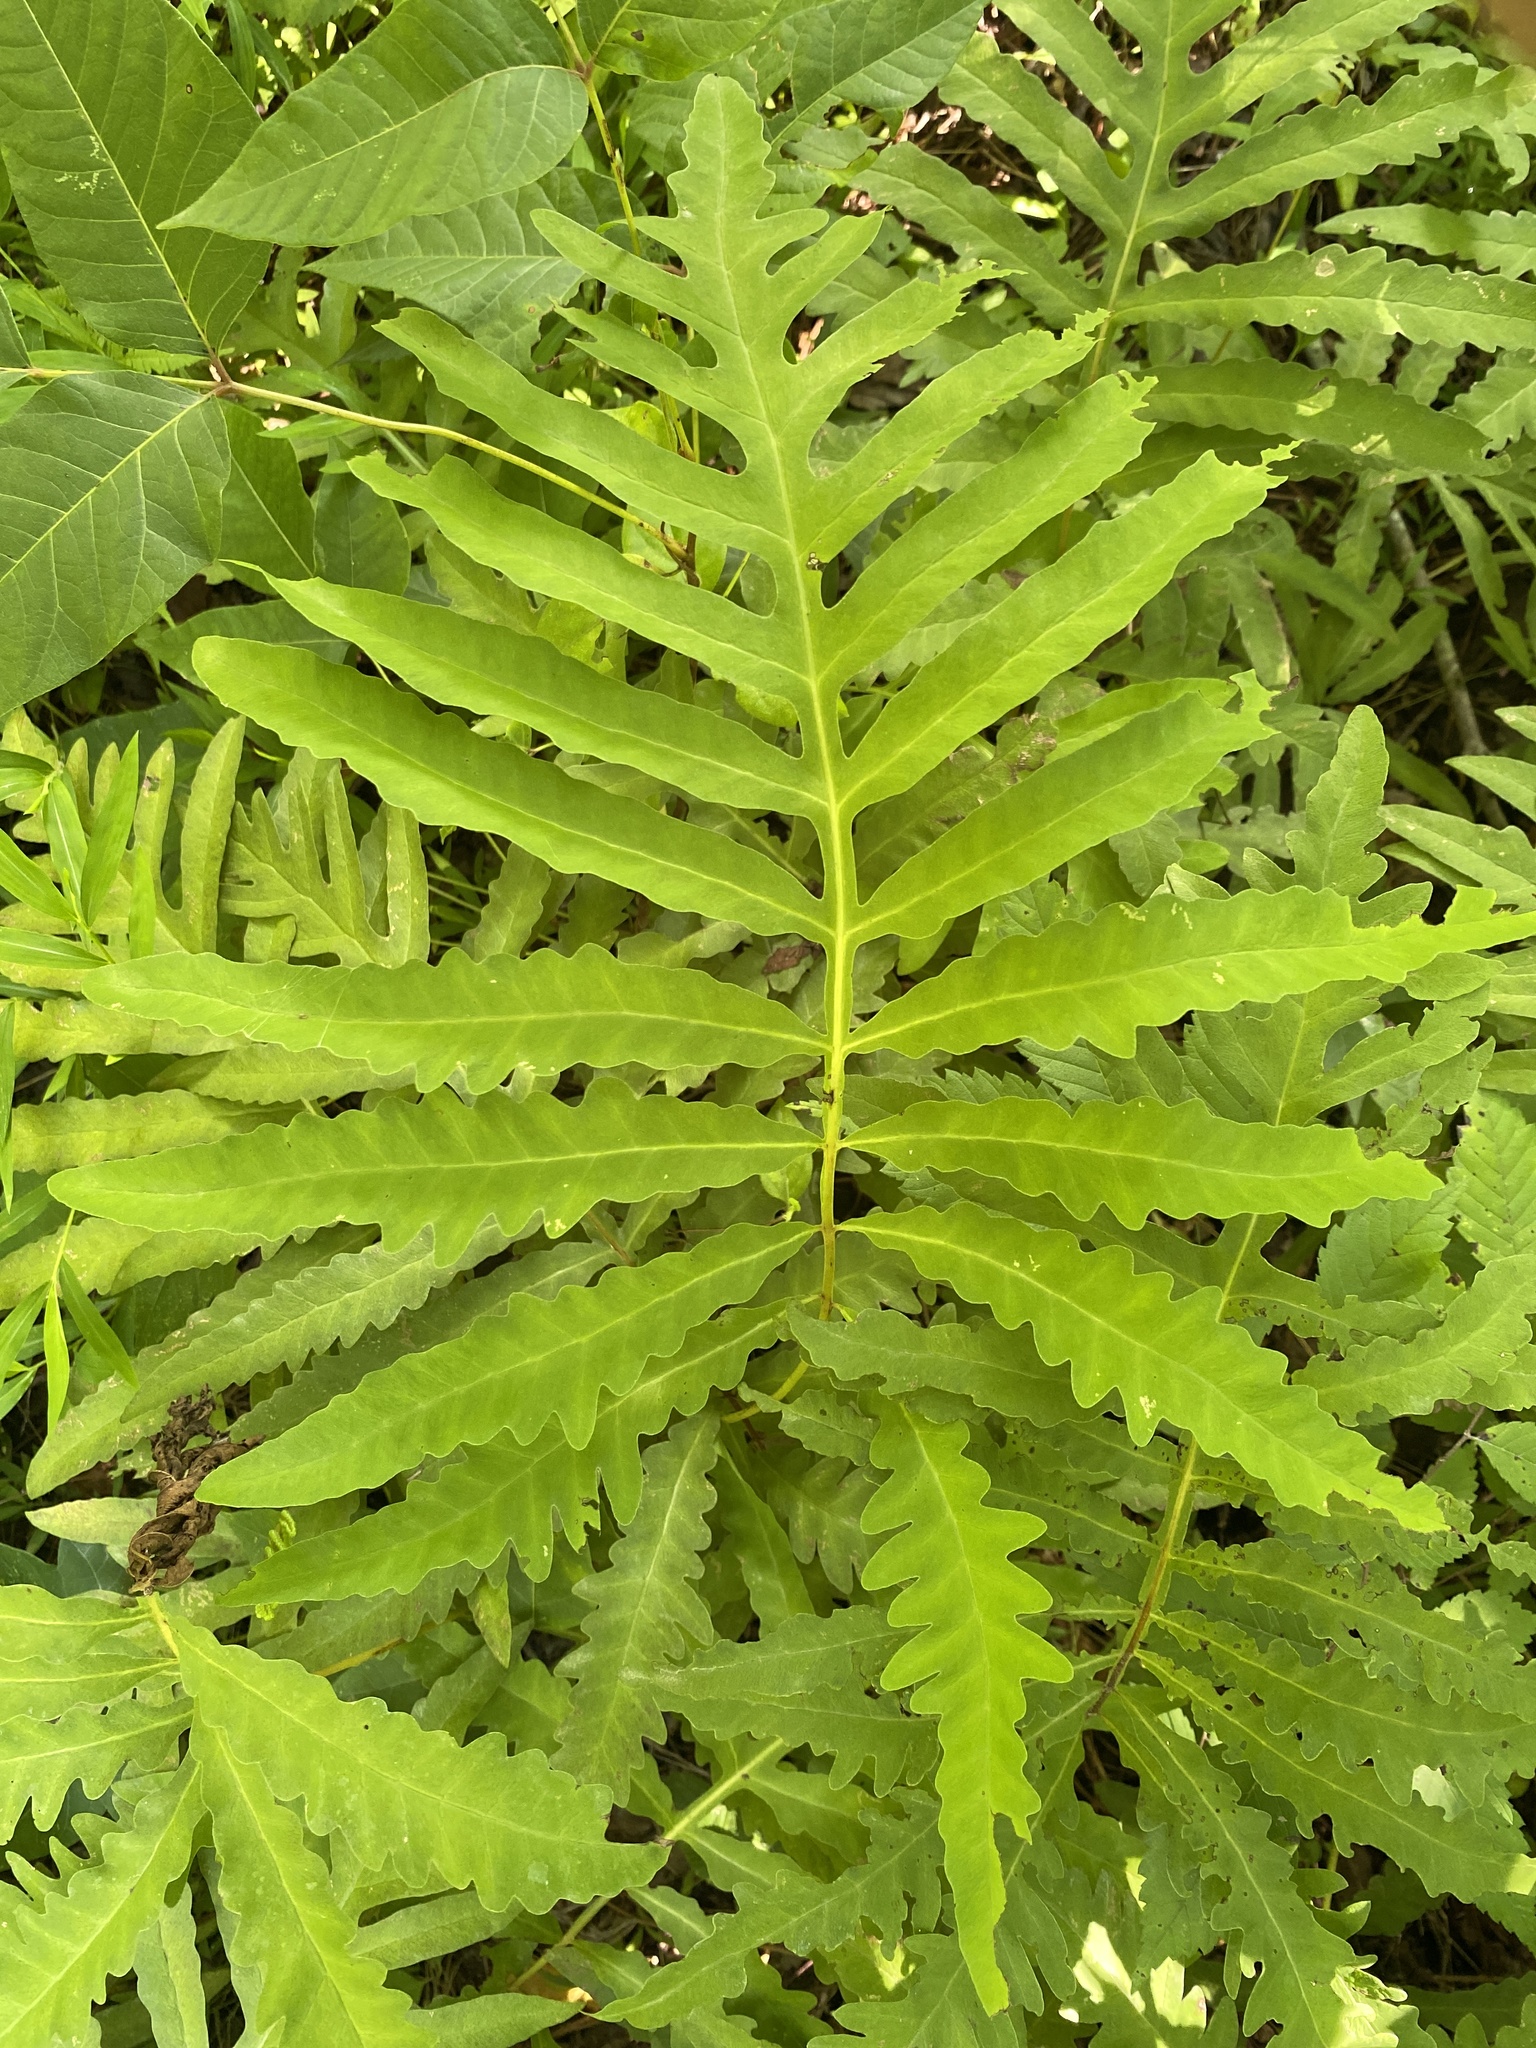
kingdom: Plantae
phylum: Tracheophyta
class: Polypodiopsida
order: Polypodiales
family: Onocleaceae
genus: Onoclea
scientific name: Onoclea sensibilis
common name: Sensitive fern
